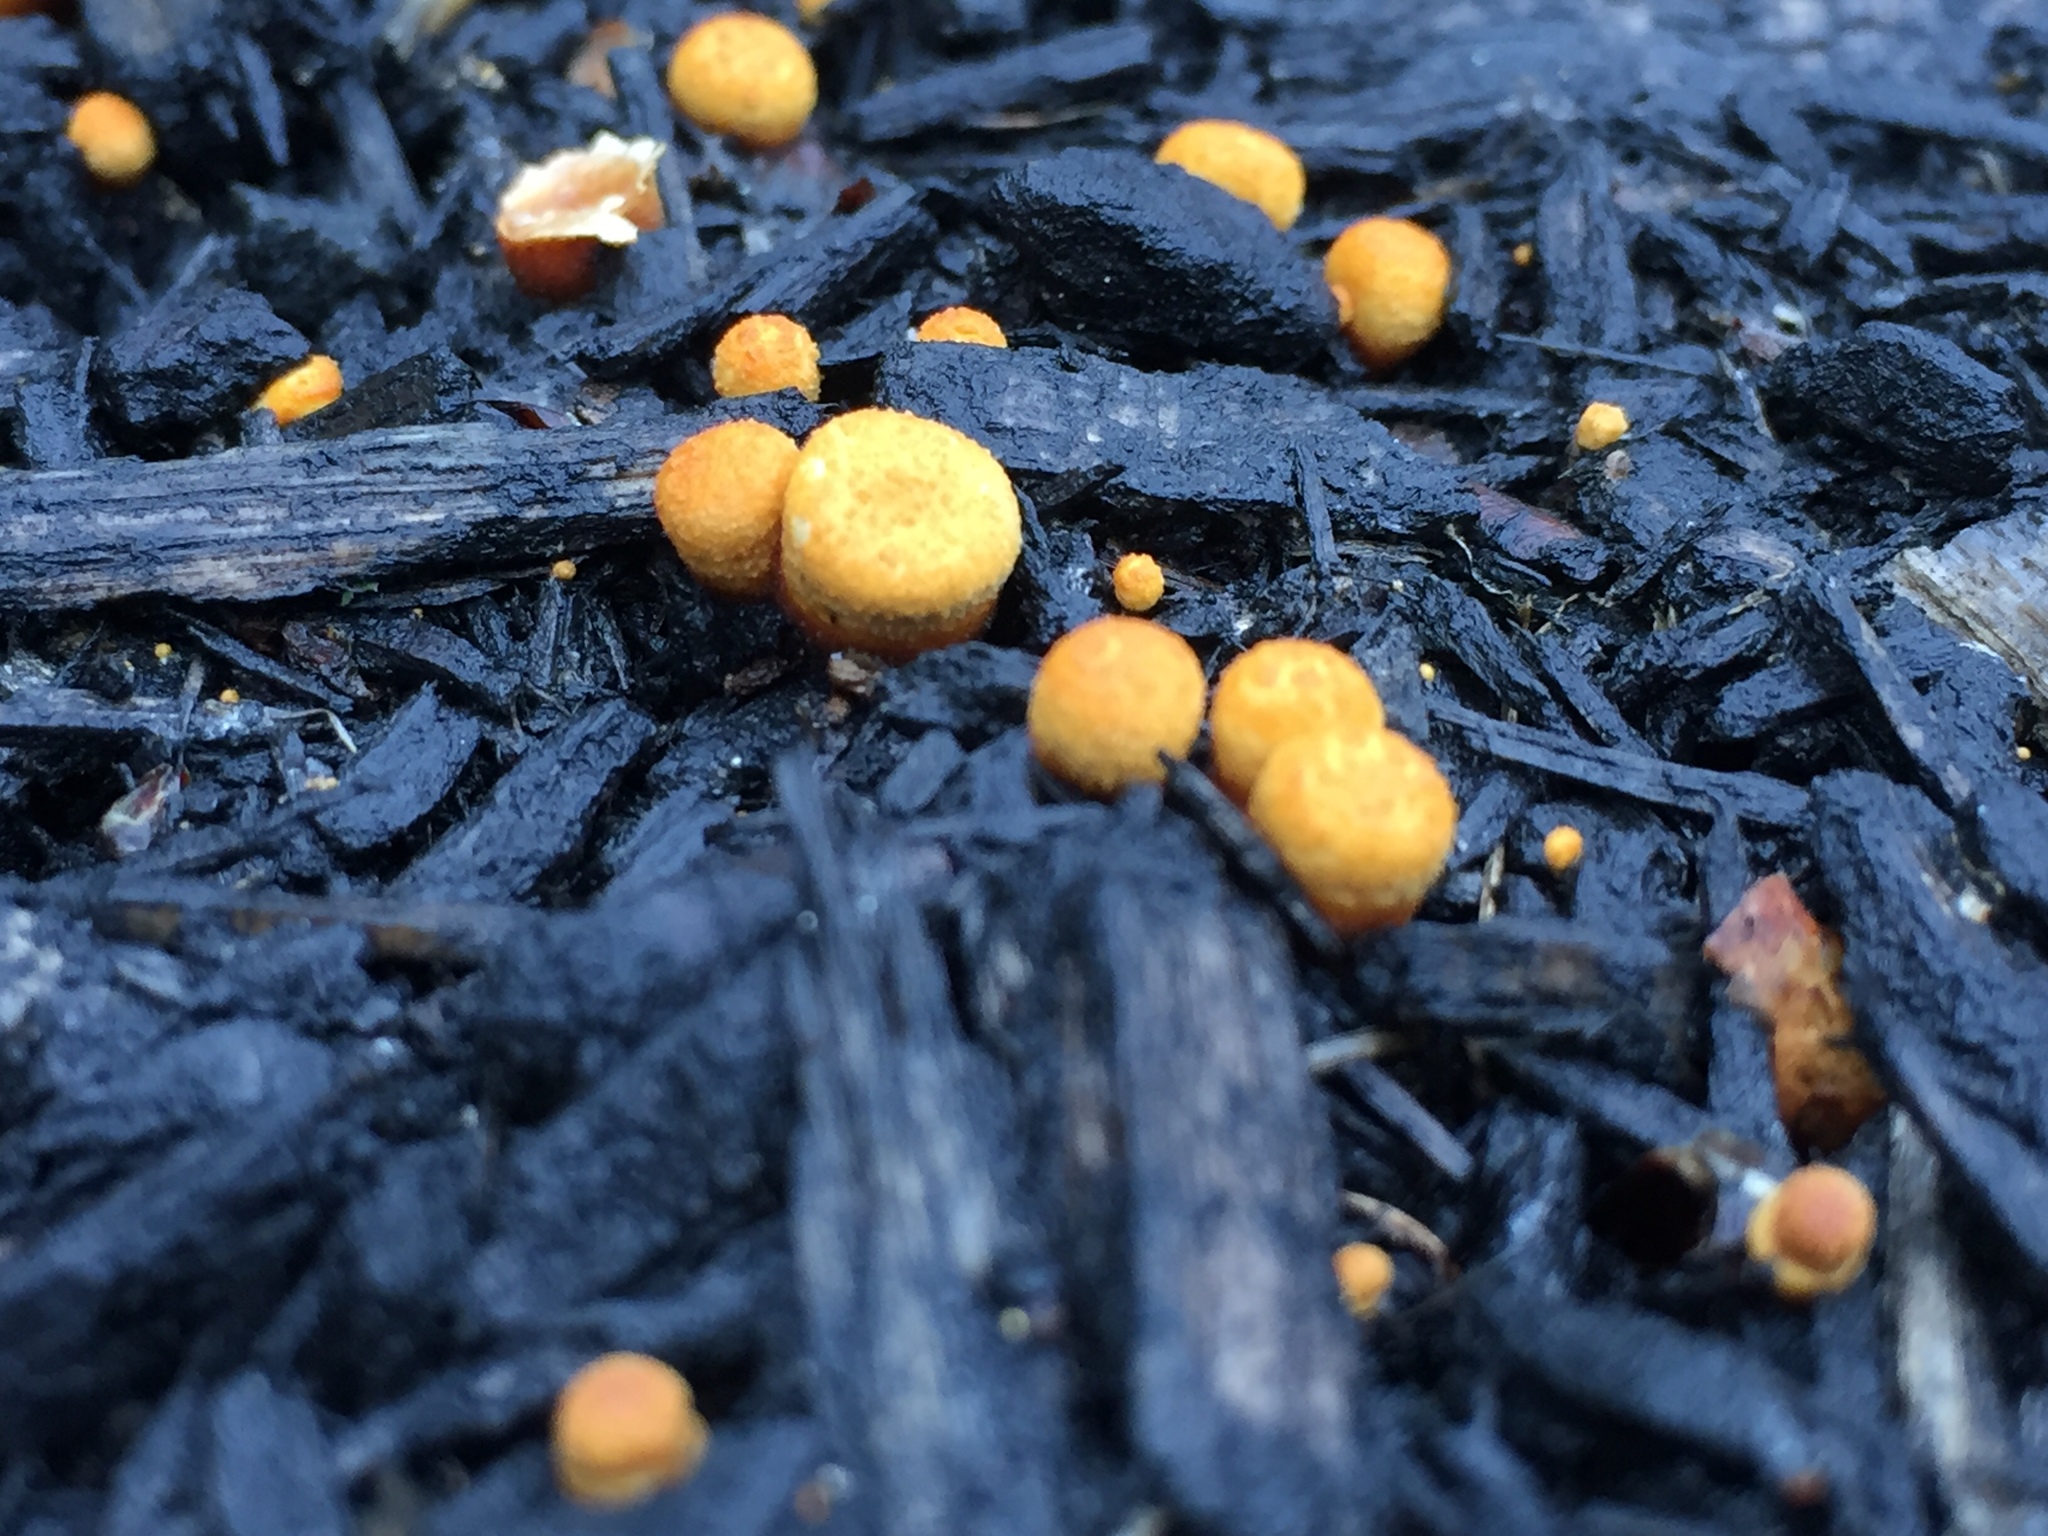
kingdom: Fungi
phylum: Basidiomycota
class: Agaricomycetes
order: Agaricales
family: Nidulariaceae
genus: Crucibulum
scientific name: Crucibulum laeve
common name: Common bird's nest
